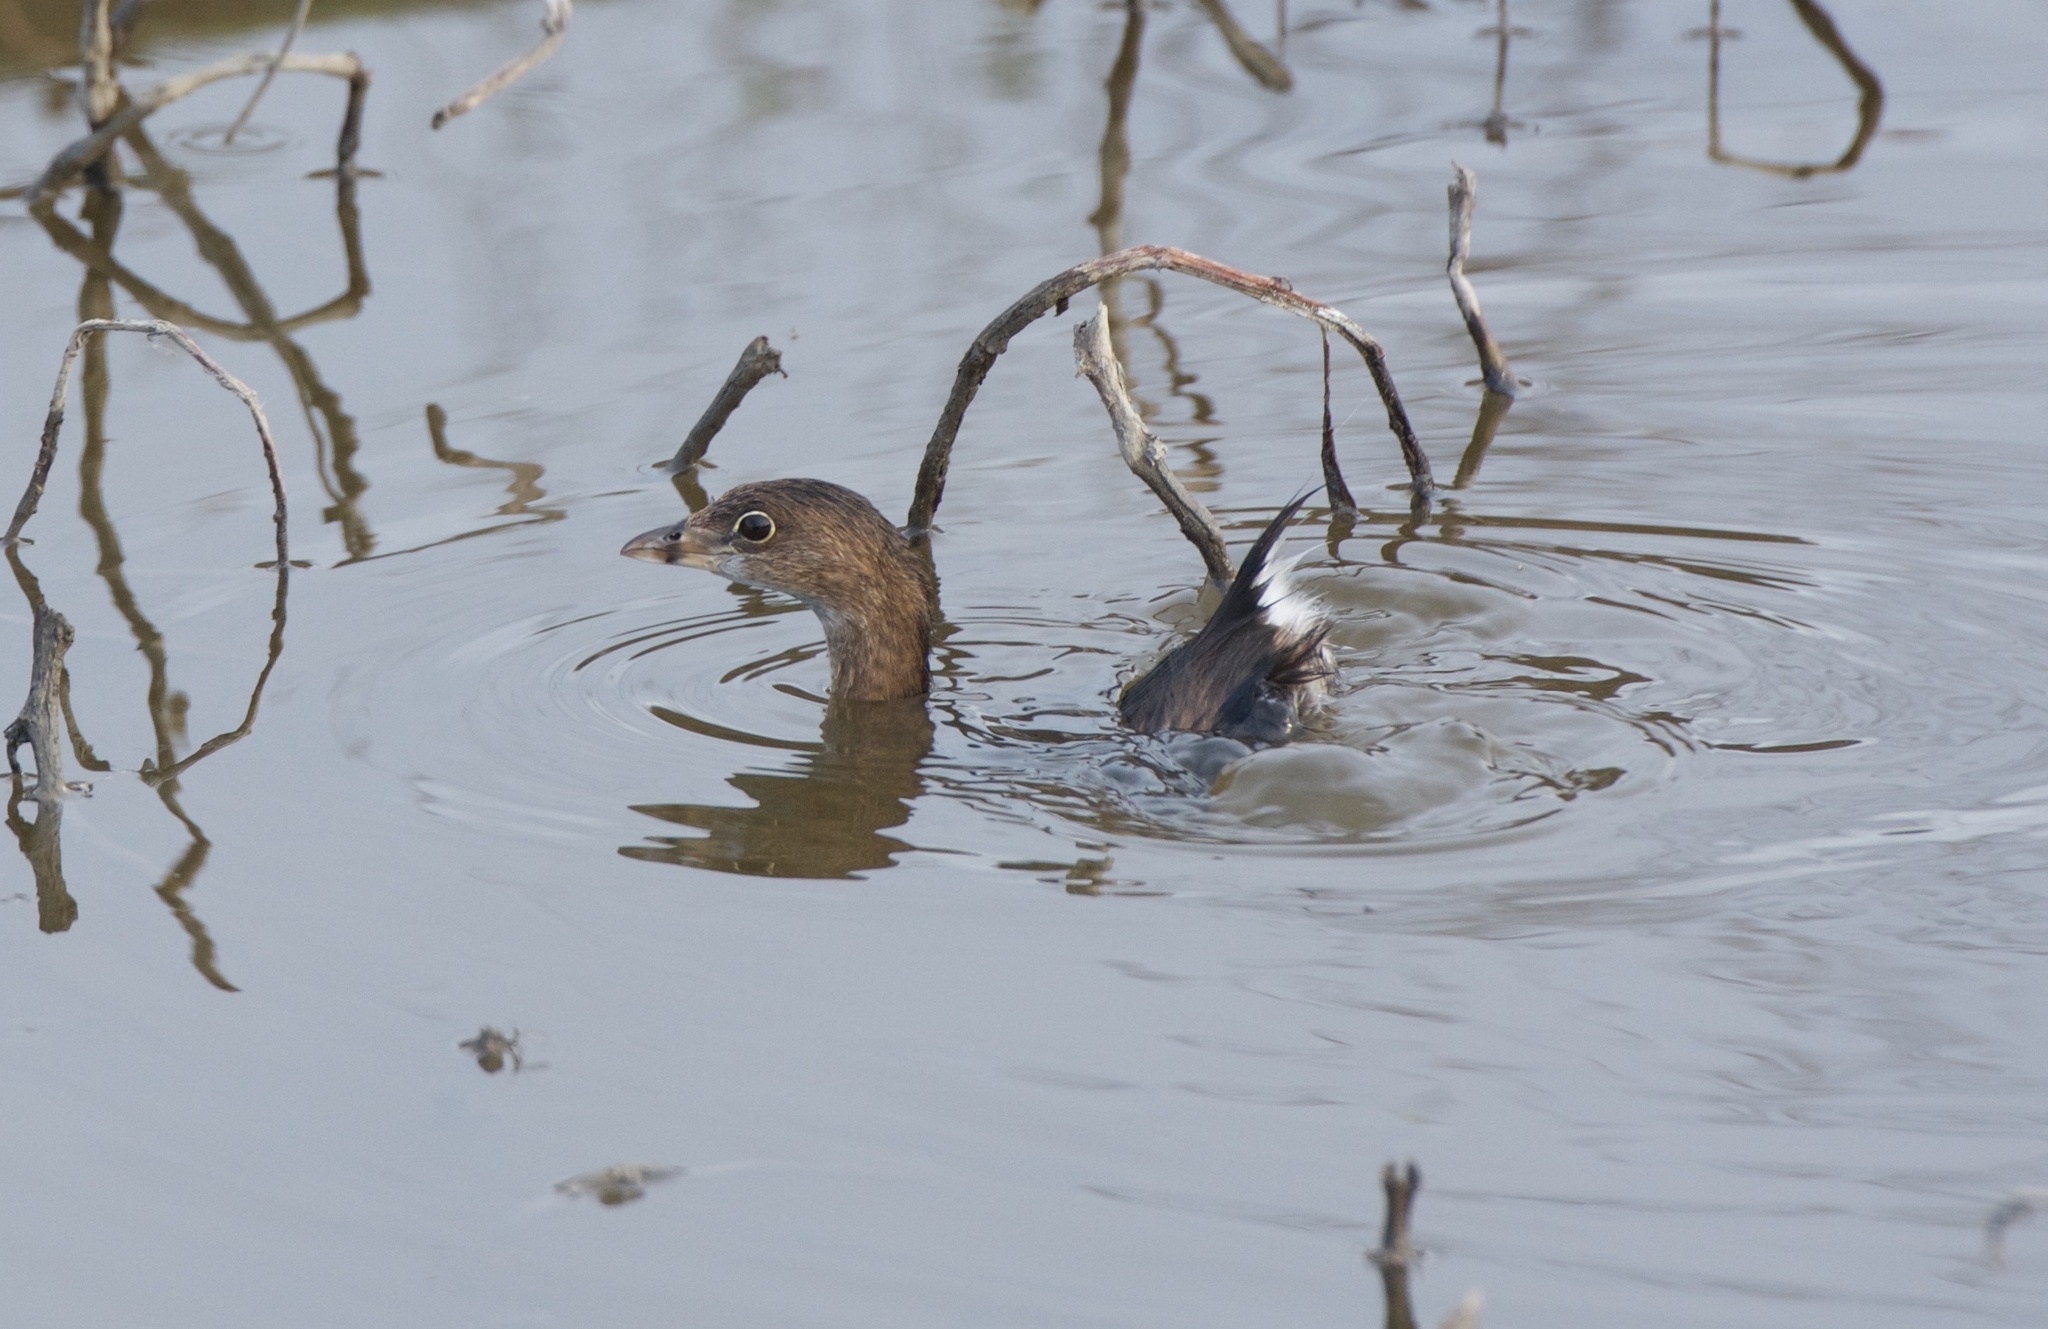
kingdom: Animalia
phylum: Chordata
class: Aves
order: Podicipediformes
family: Podicipedidae
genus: Podilymbus
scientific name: Podilymbus podiceps
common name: Pied-billed grebe
